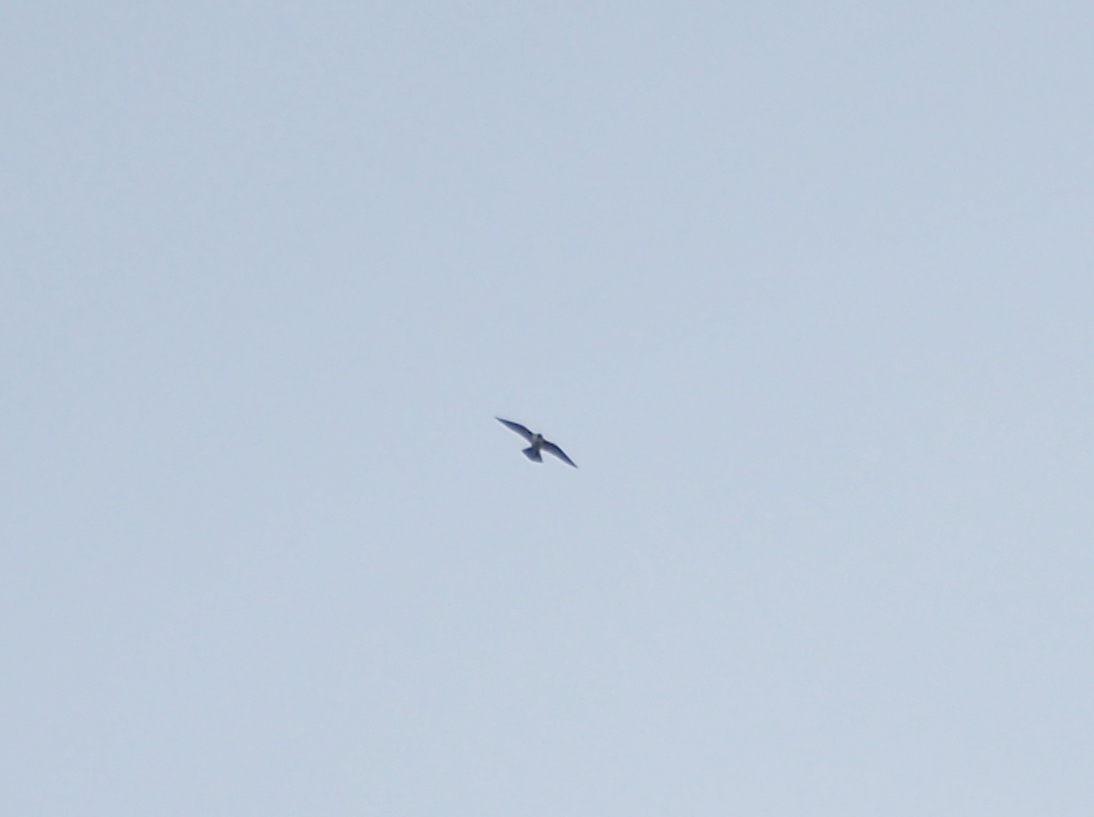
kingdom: Animalia
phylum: Chordata
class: Aves
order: Falconiformes
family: Falconidae
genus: Falco
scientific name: Falco peregrinus
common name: Peregrine falcon
